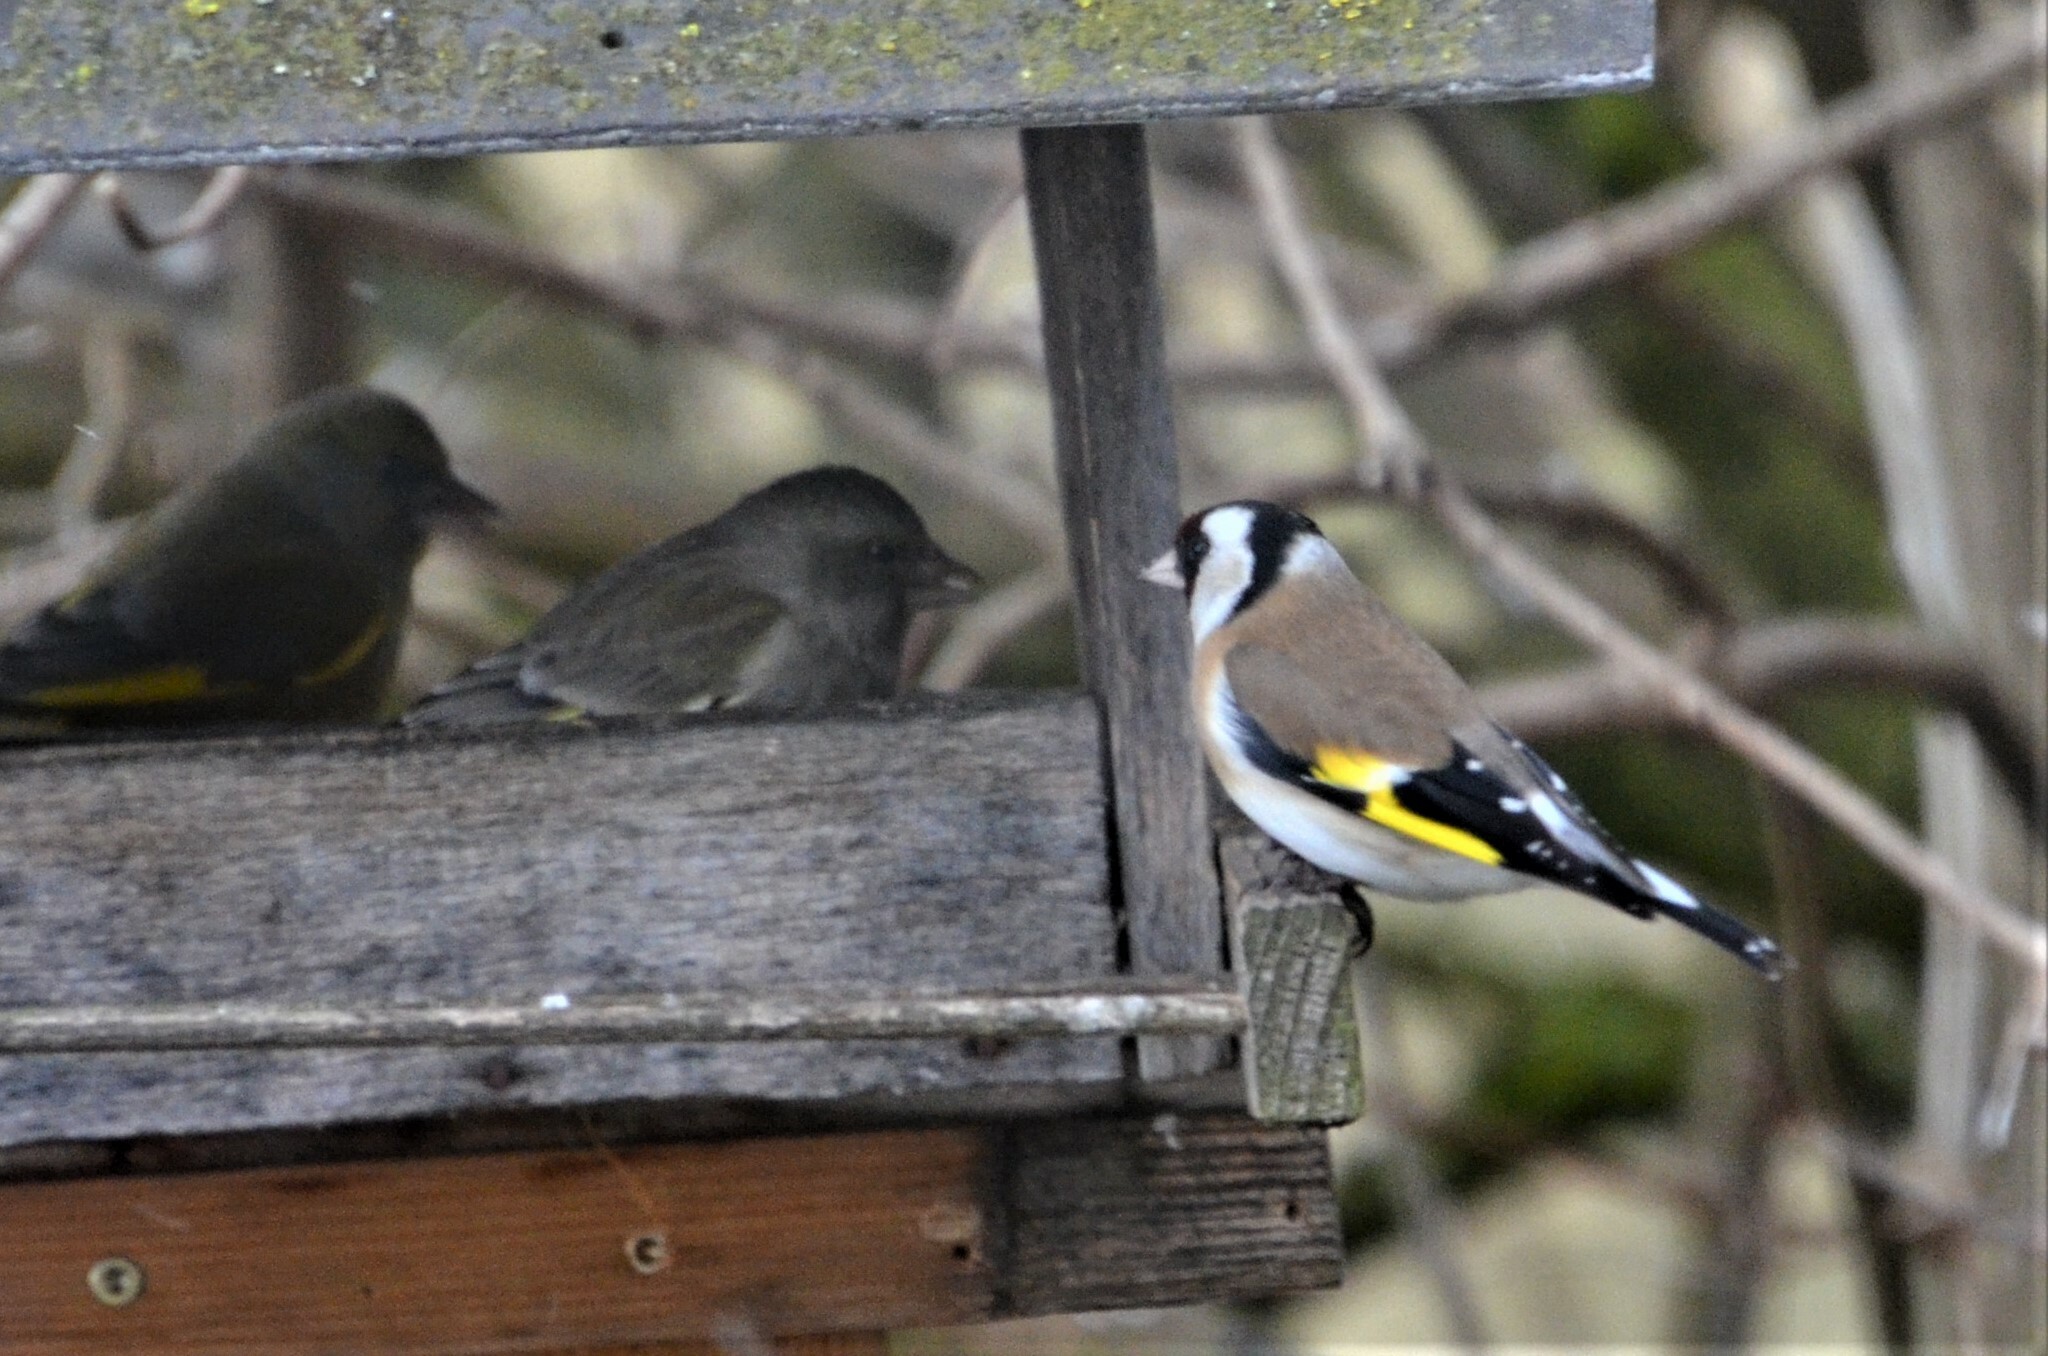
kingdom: Animalia
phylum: Chordata
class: Aves
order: Passeriformes
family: Fringillidae
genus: Carduelis
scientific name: Carduelis carduelis
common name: European goldfinch
